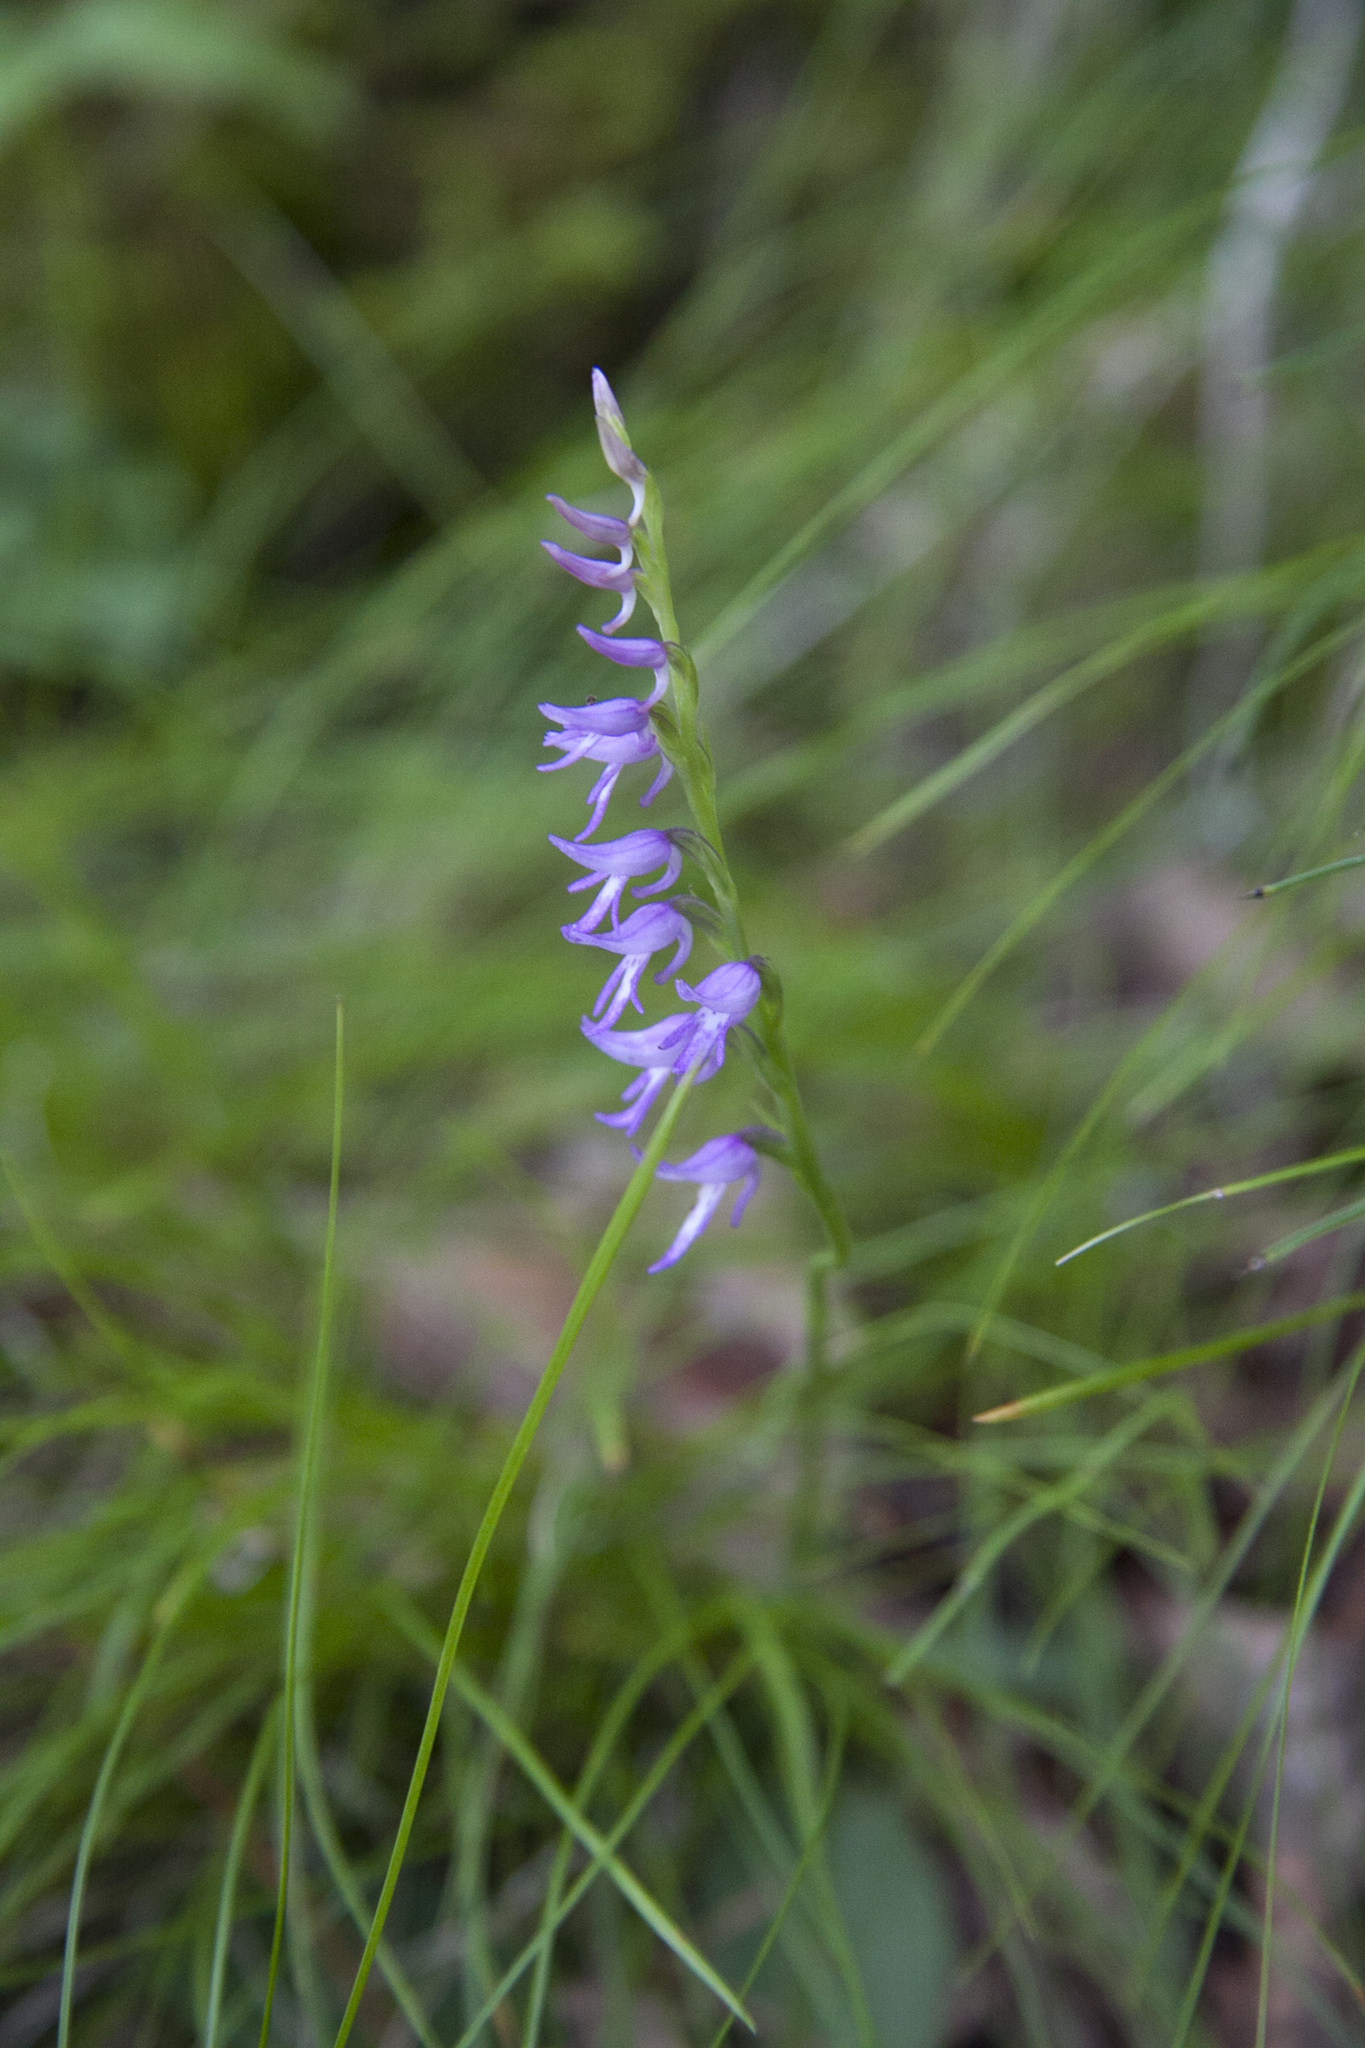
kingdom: Plantae
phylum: Tracheophyta
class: Liliopsida
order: Asparagales
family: Orchidaceae
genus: Hemipilia
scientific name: Hemipilia cucullata
